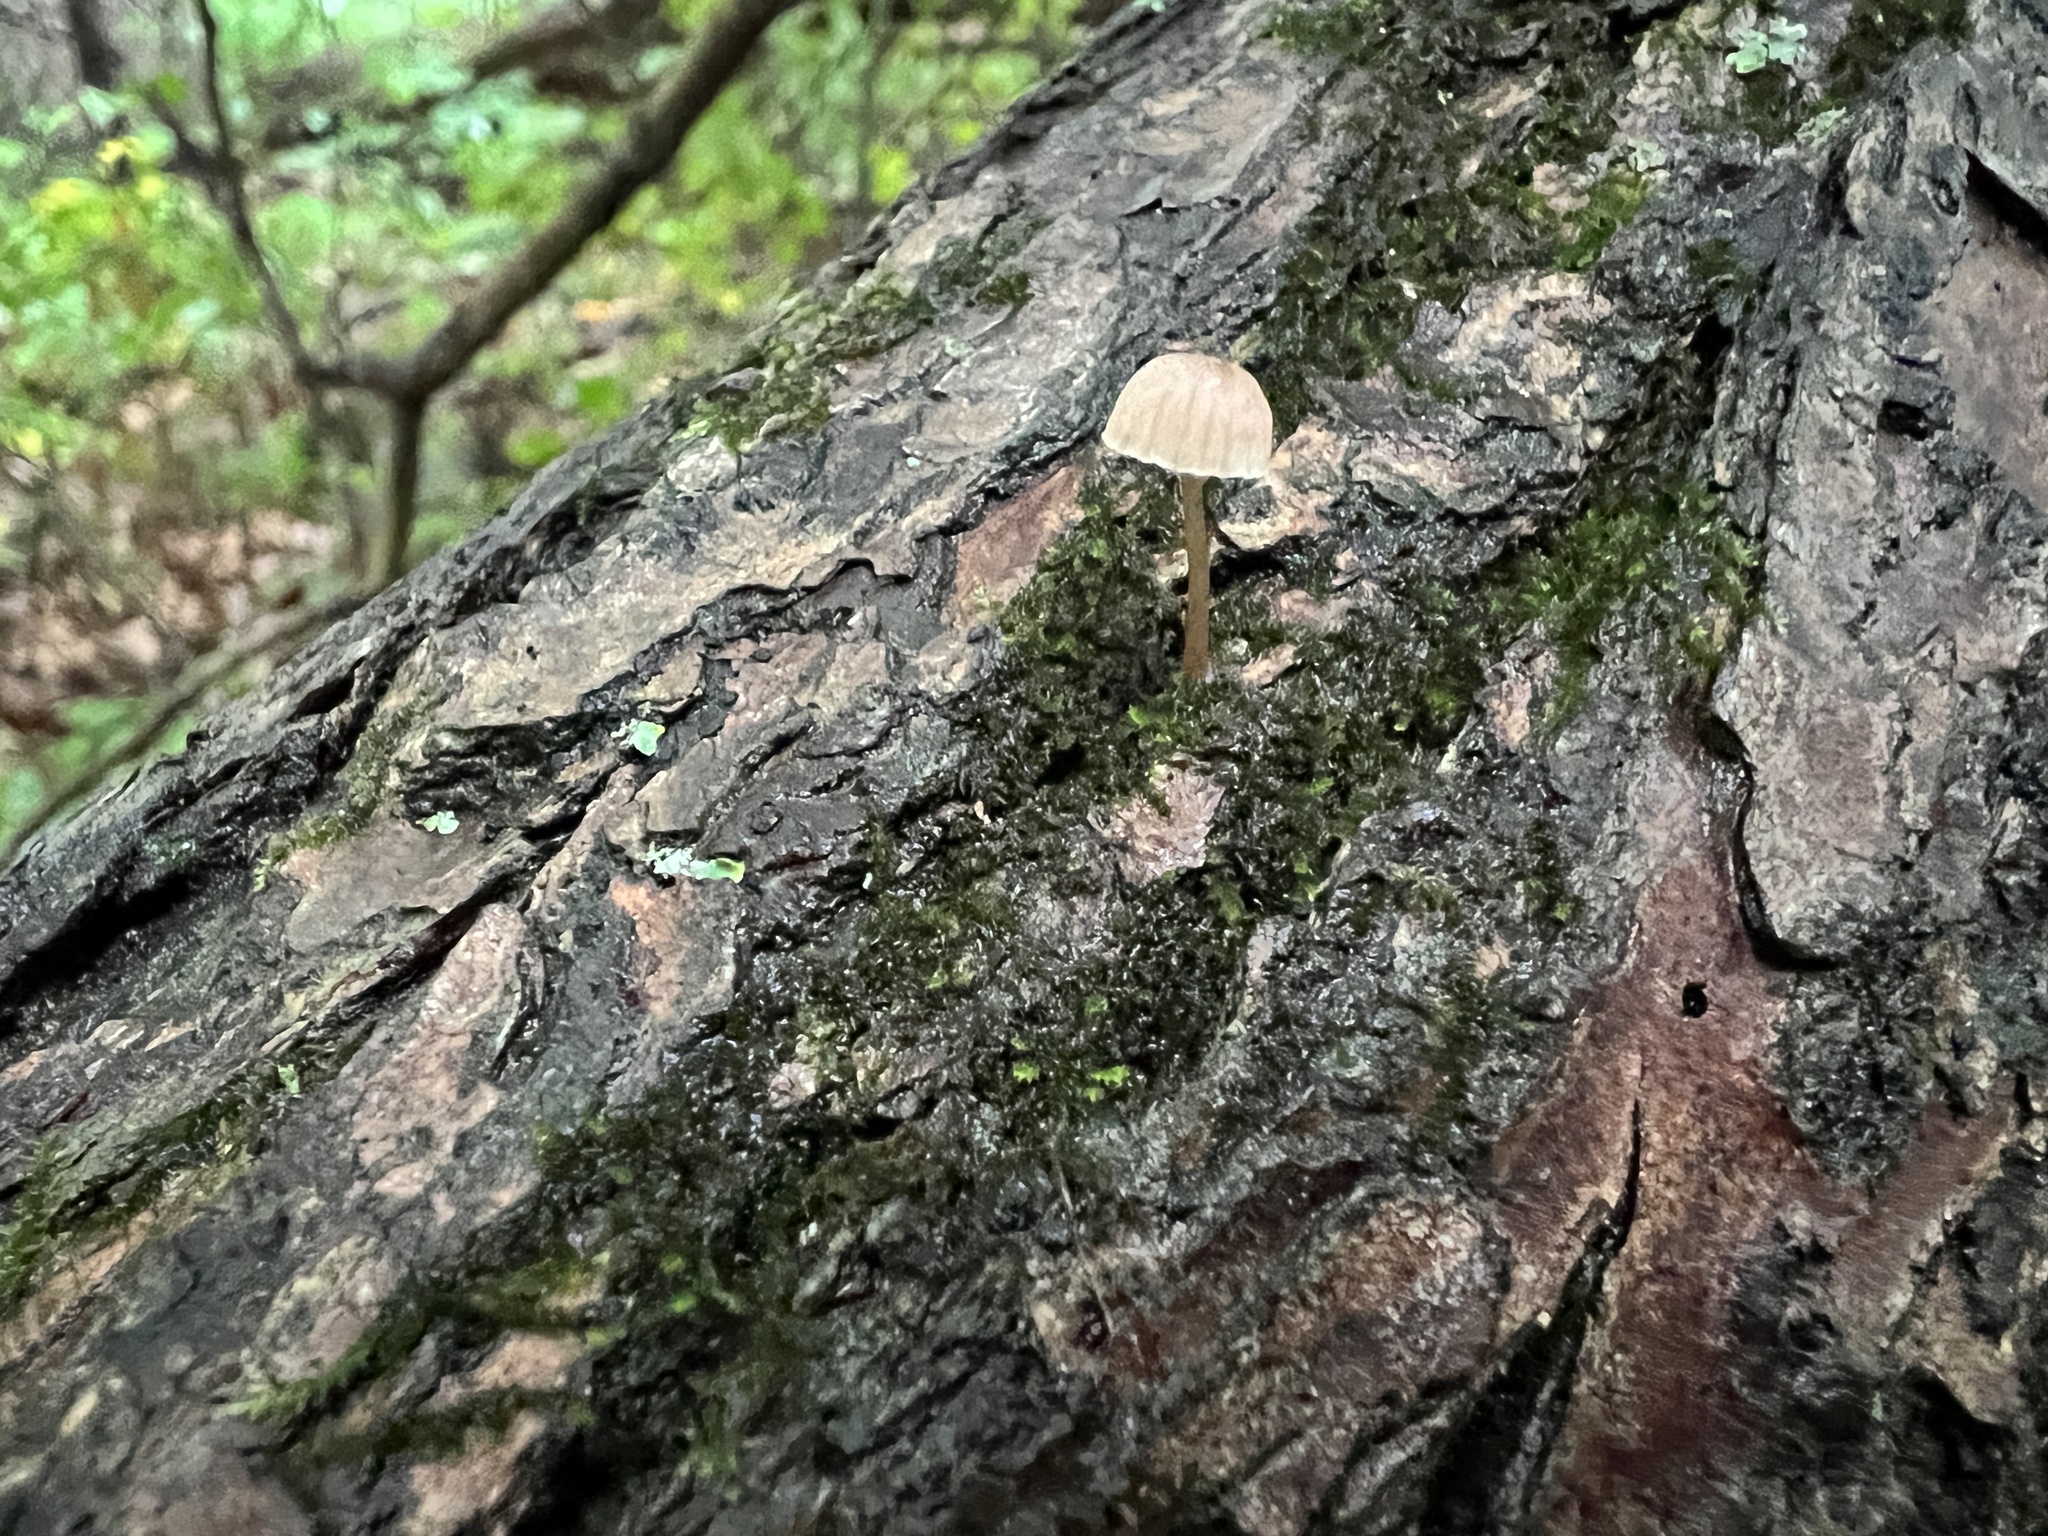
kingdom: Fungi
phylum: Basidiomycota
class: Agaricomycetes
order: Agaricales
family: Mycenaceae
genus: Mycena
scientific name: Mycena meliigena
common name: Mauve bonnet
